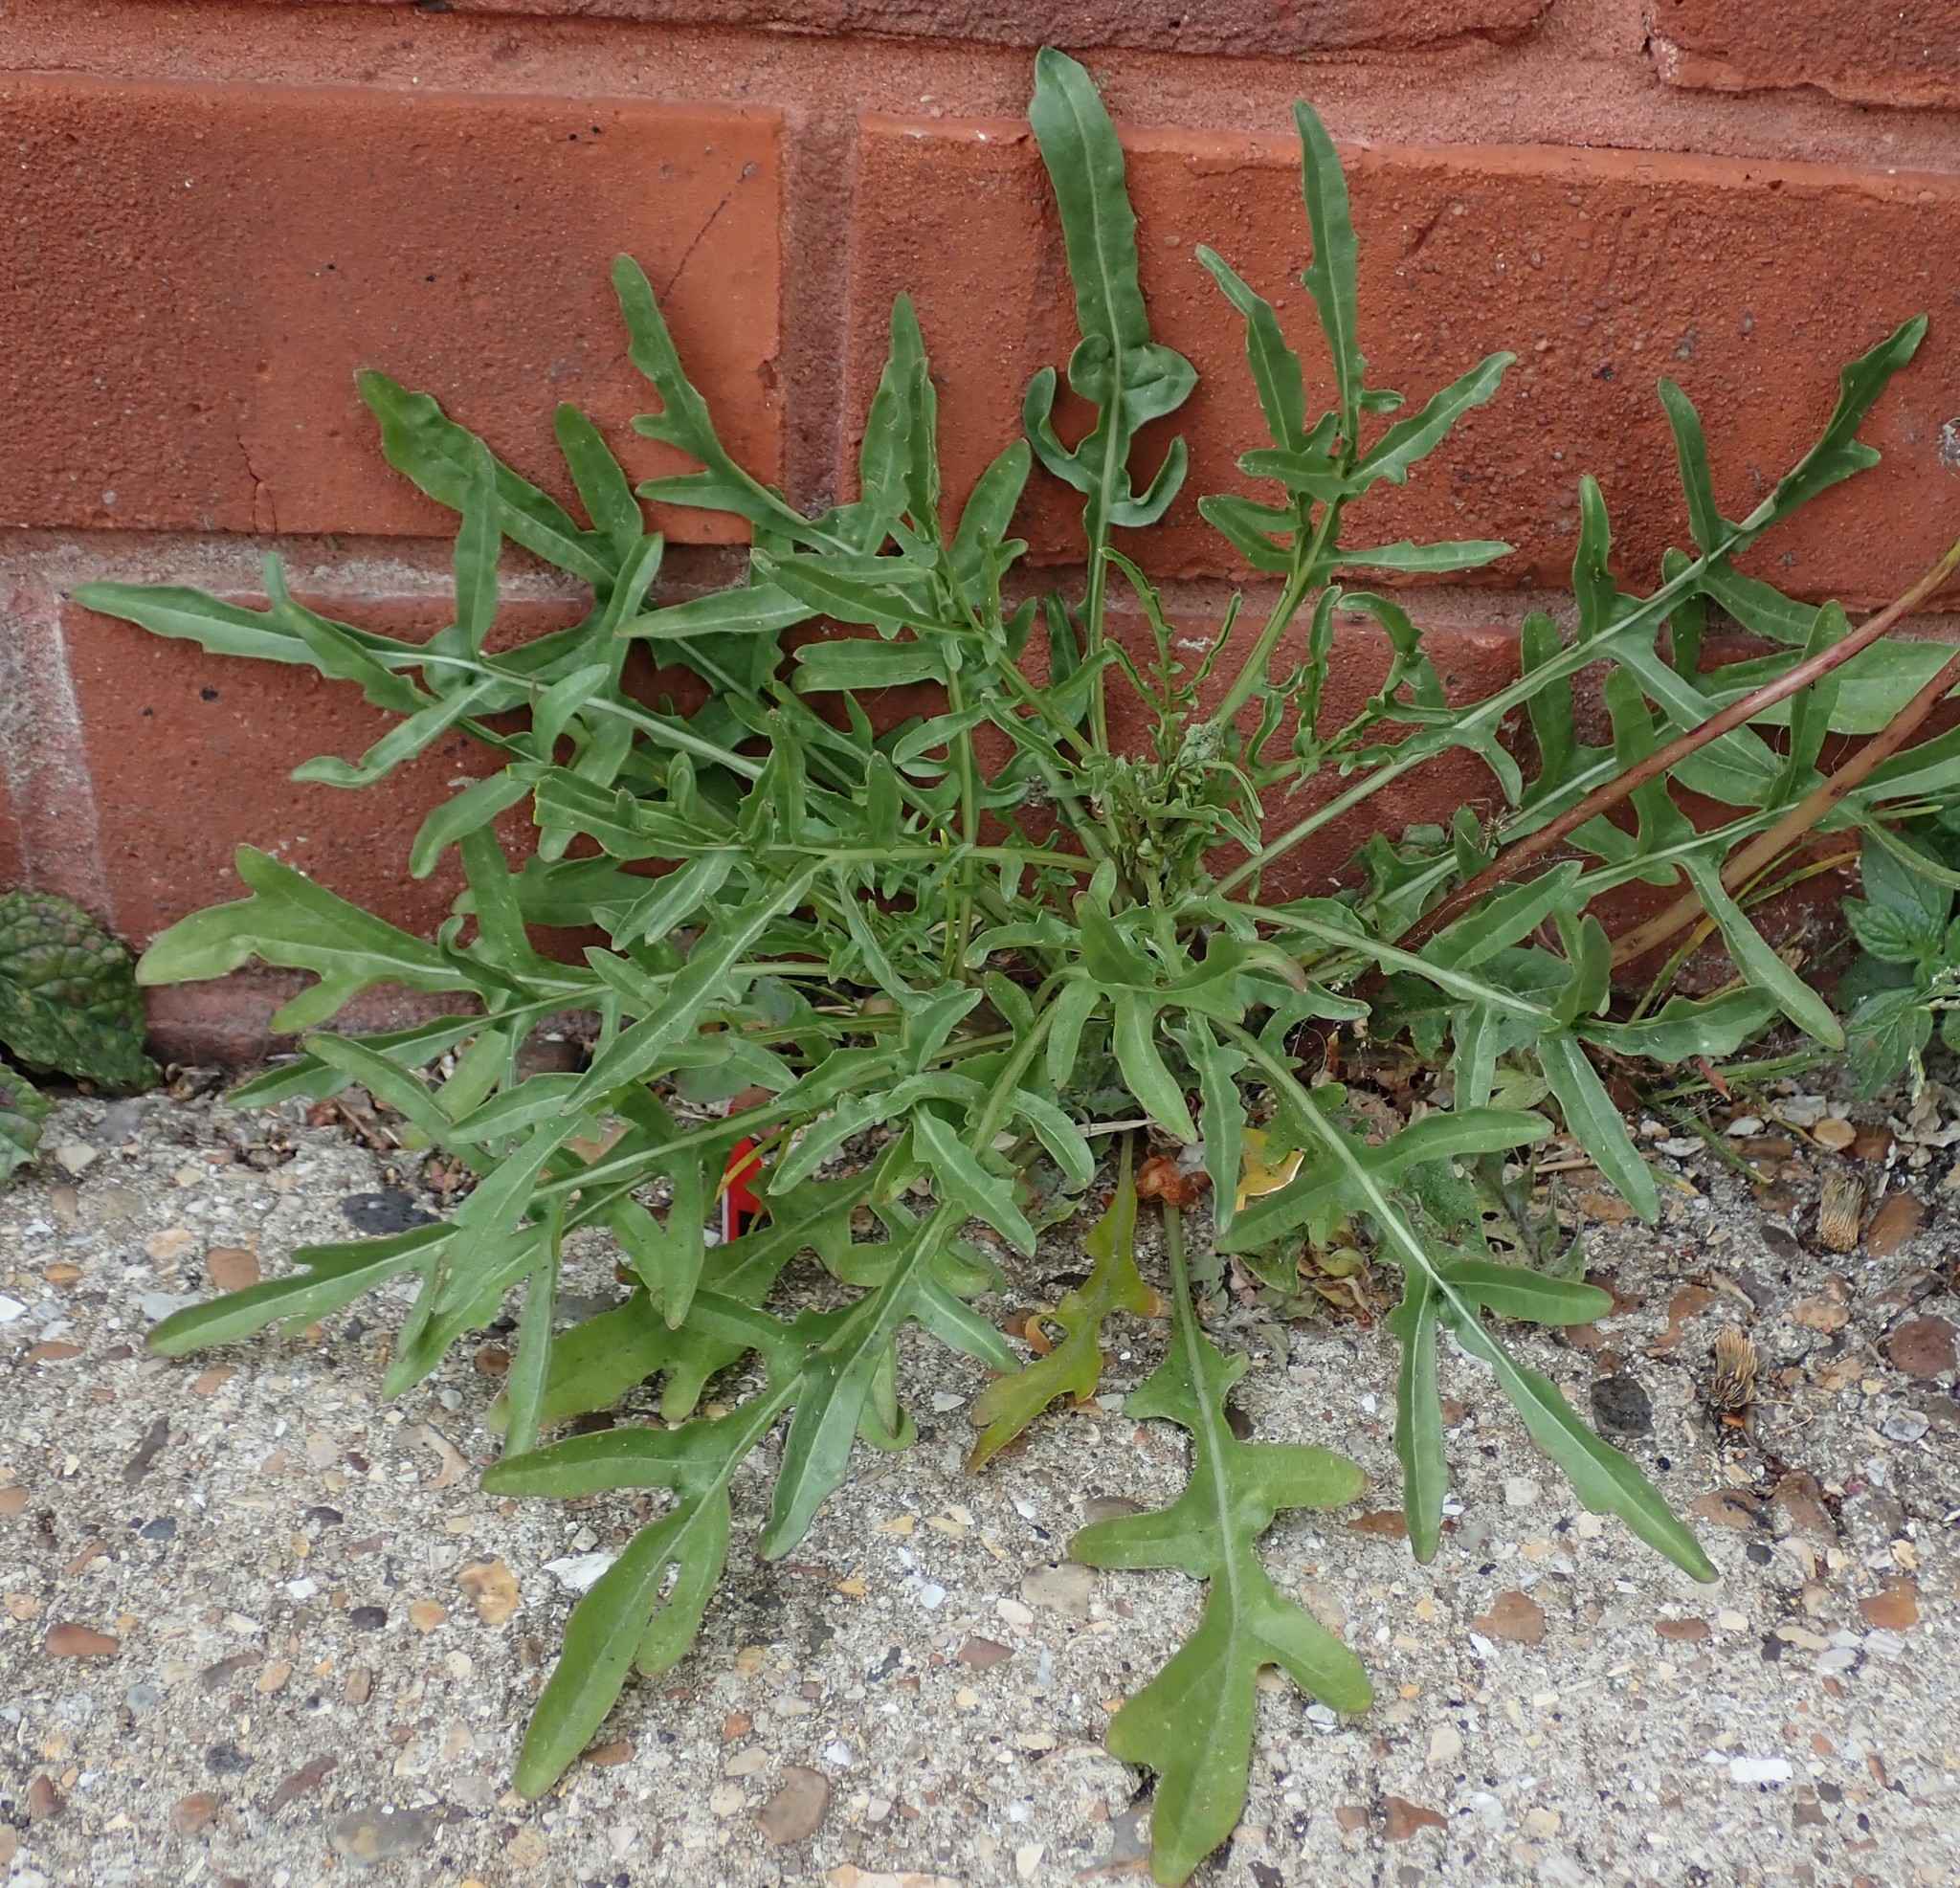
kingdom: Plantae
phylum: Tracheophyta
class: Magnoliopsida
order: Brassicales
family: Brassicaceae
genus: Diplotaxis
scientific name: Diplotaxis tenuifolia
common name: Perennial wall-rocket
